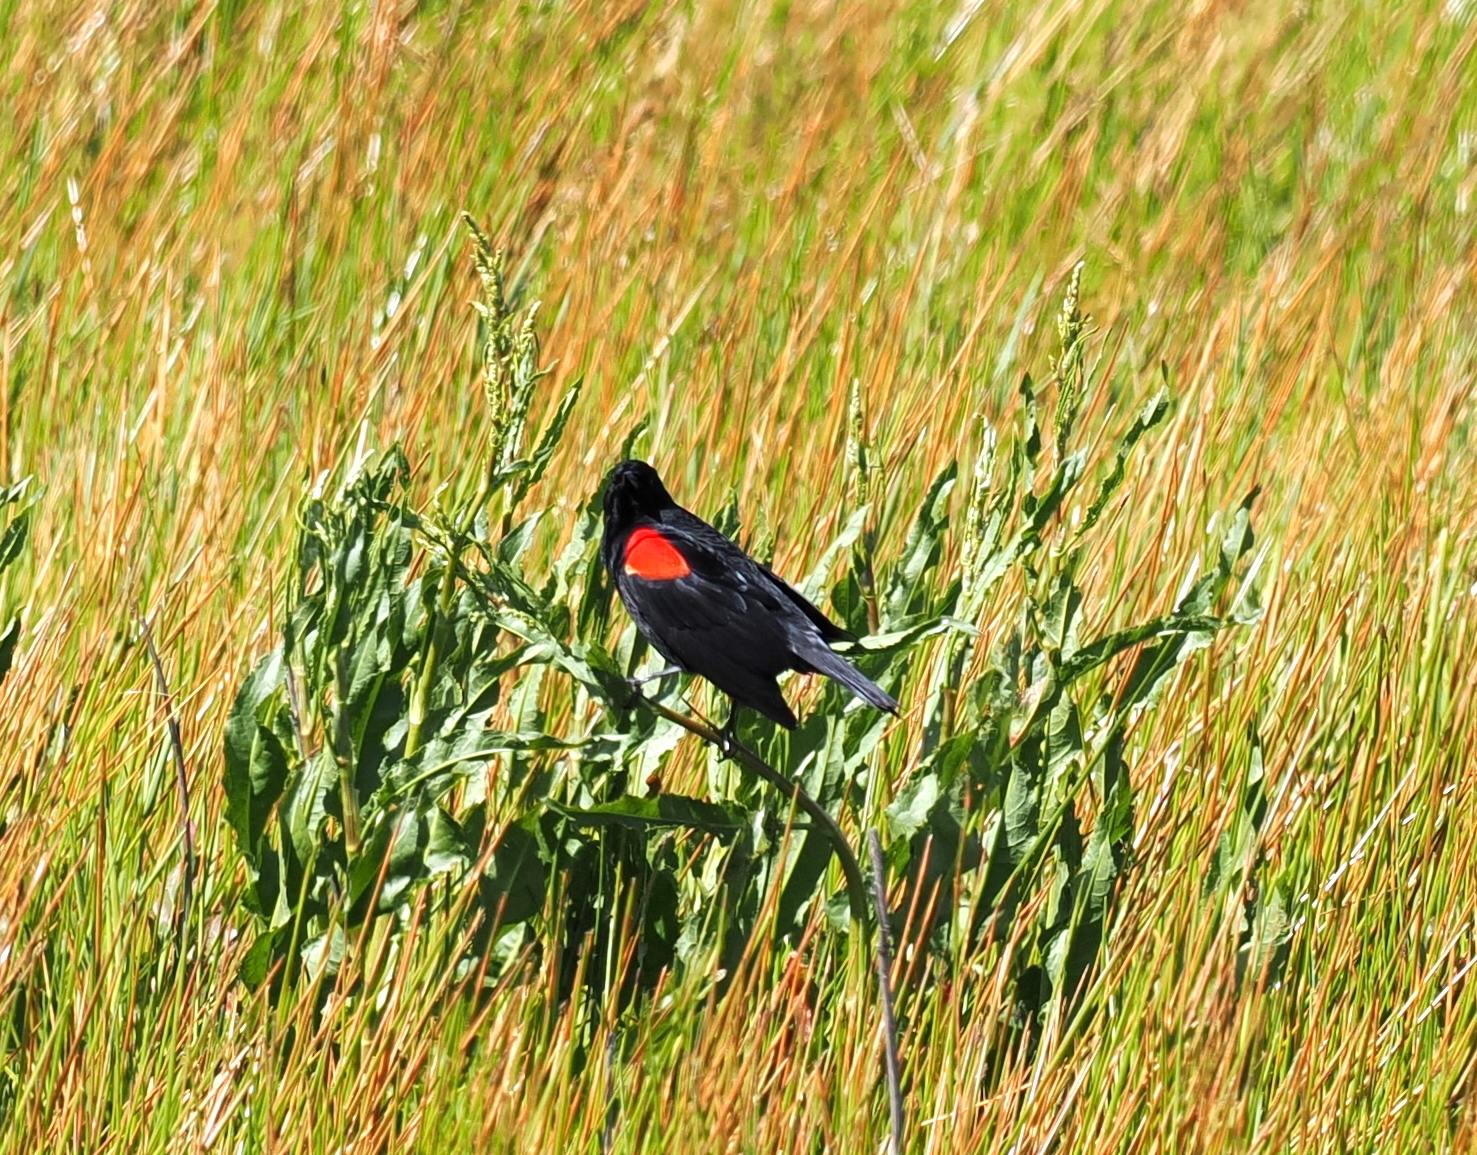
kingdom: Animalia
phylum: Chordata
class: Aves
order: Passeriformes
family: Icteridae
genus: Agelaius
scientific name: Agelaius phoeniceus
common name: Red-winged blackbird
